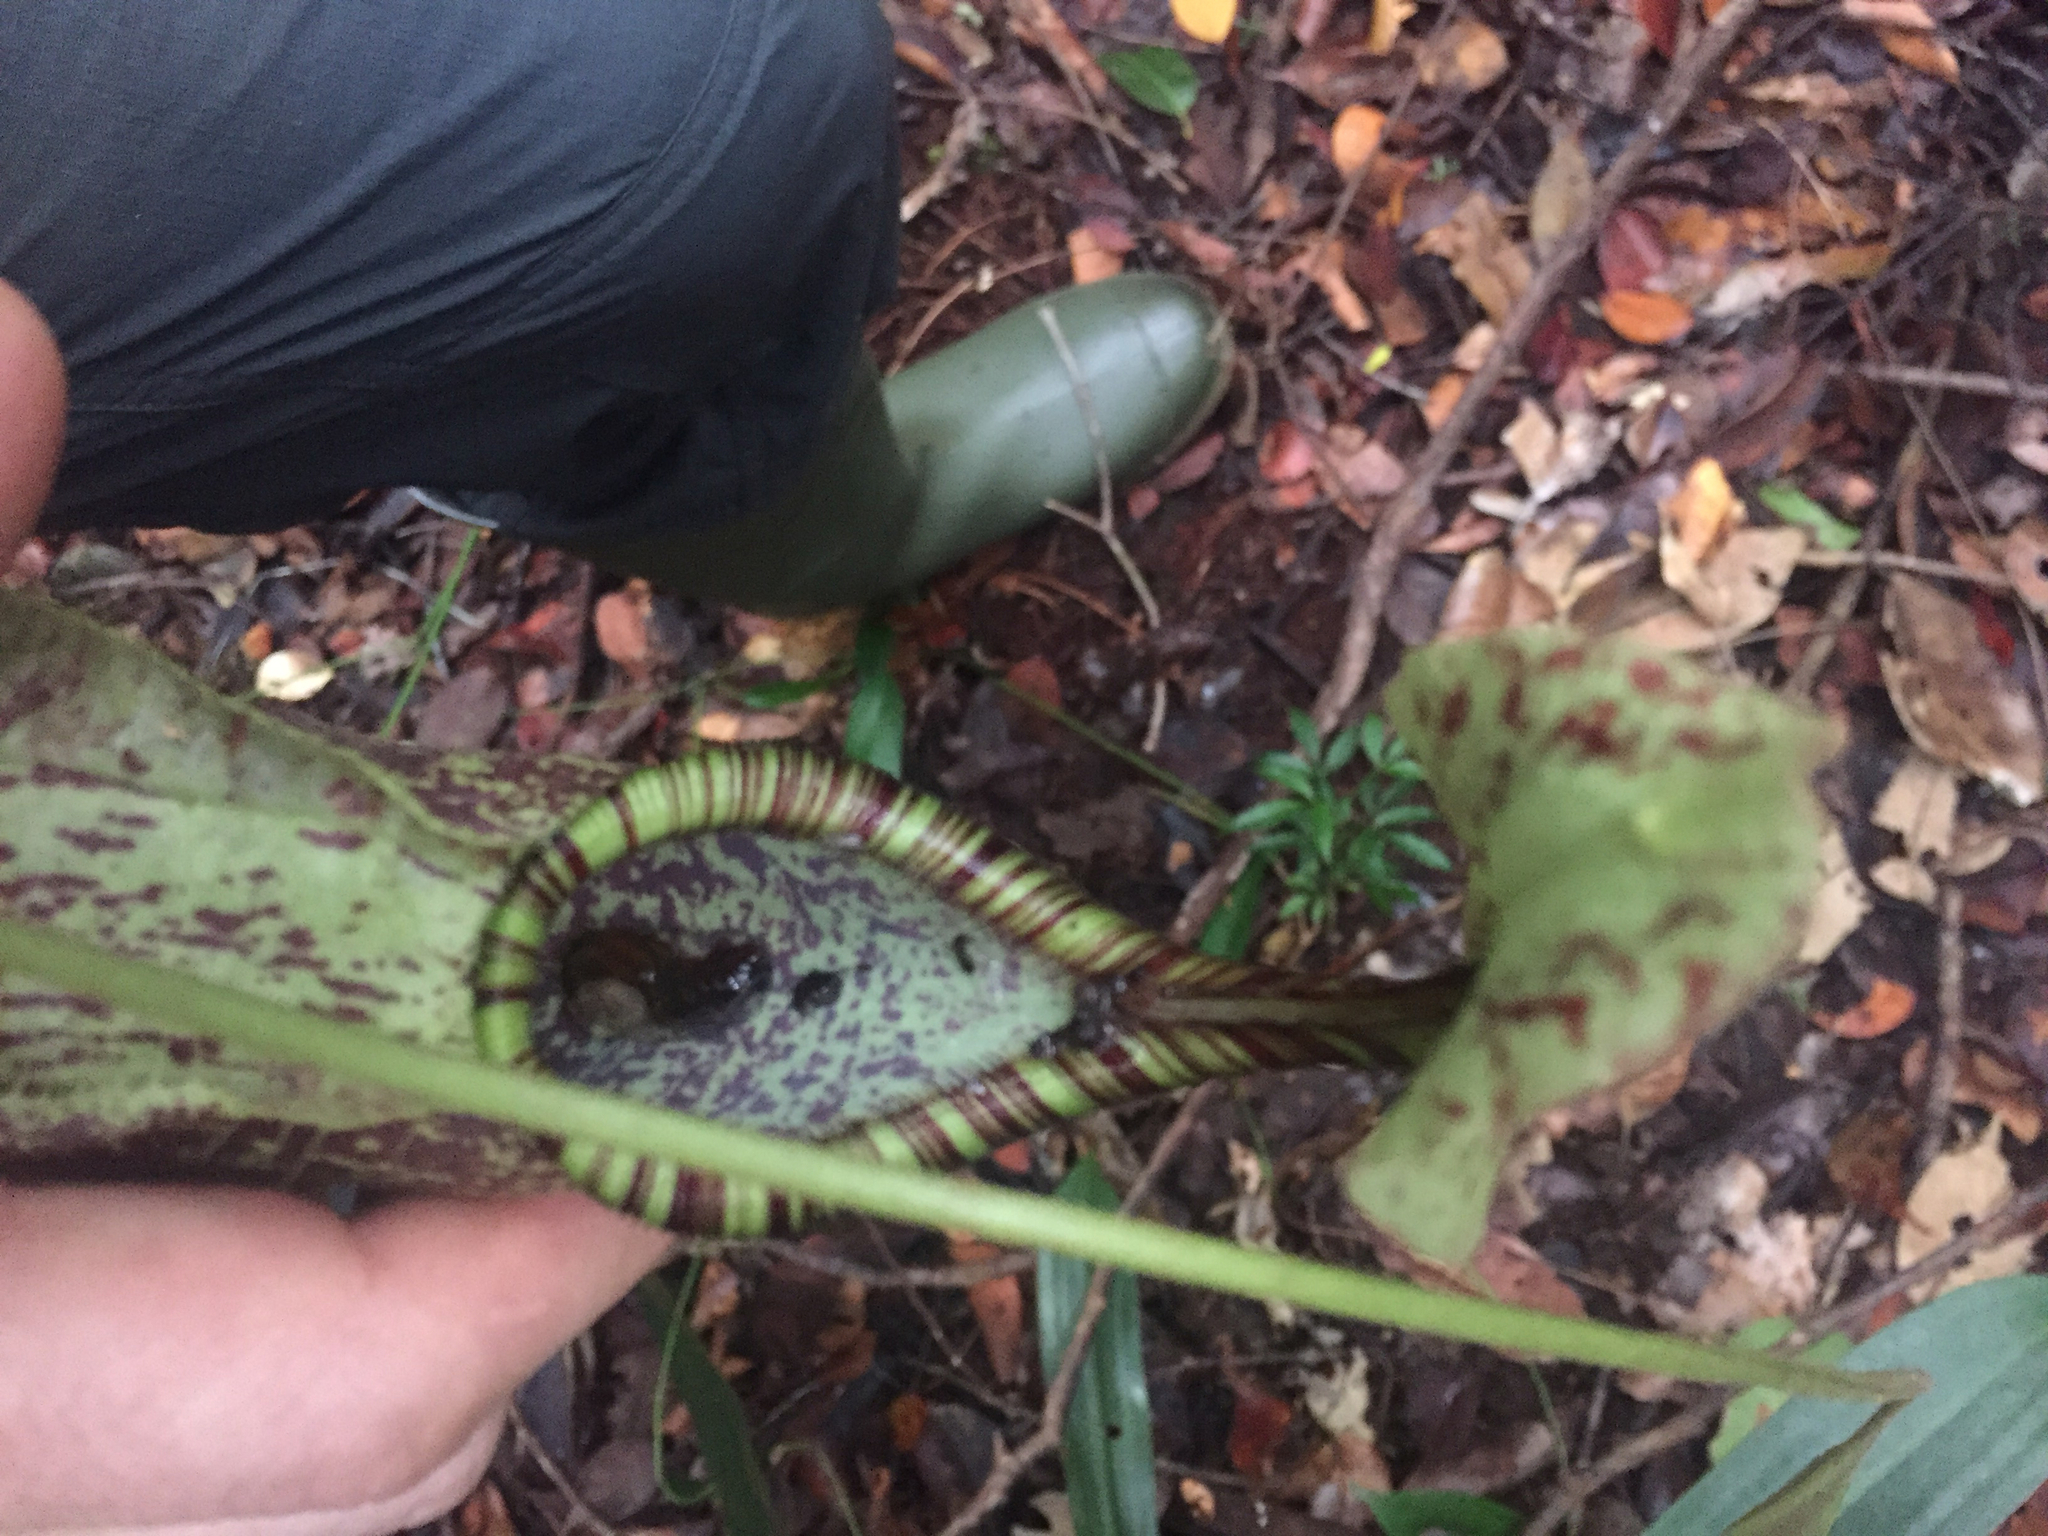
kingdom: Plantae
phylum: Tracheophyta
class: Magnoliopsida
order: Caryophyllales
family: Nepenthaceae
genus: Nepenthes
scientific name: Nepenthes rafflesiana
